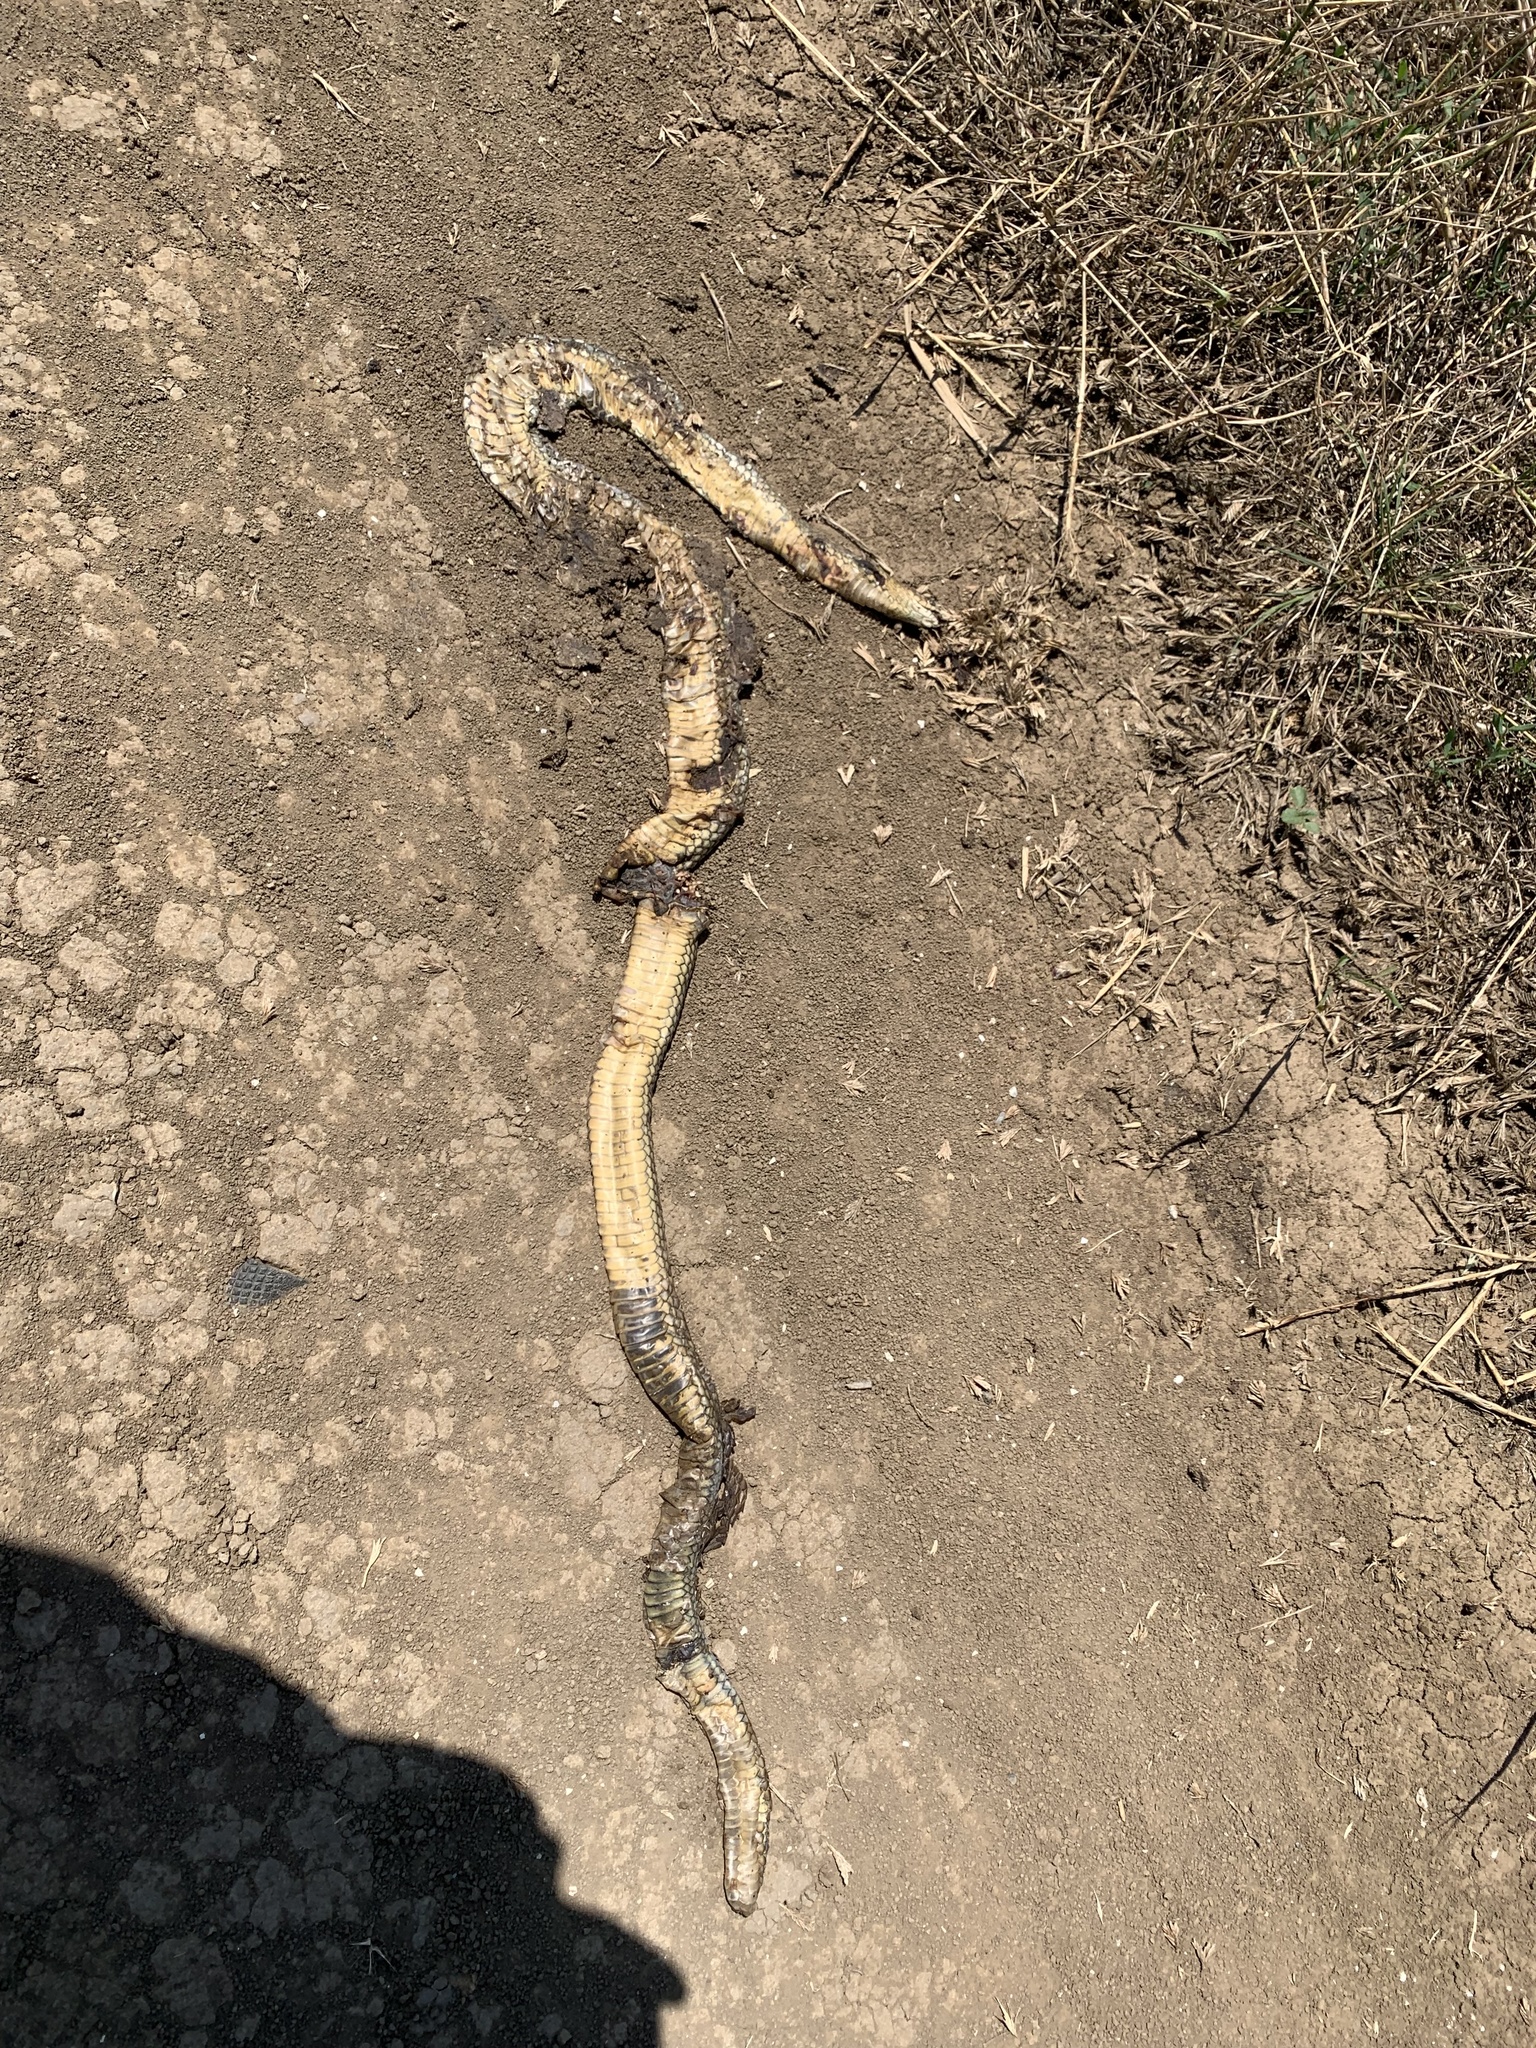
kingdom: Animalia
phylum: Chordata
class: Squamata
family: Colubridae
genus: Dolichophis
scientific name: Dolichophis caspius
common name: Large whip snake
